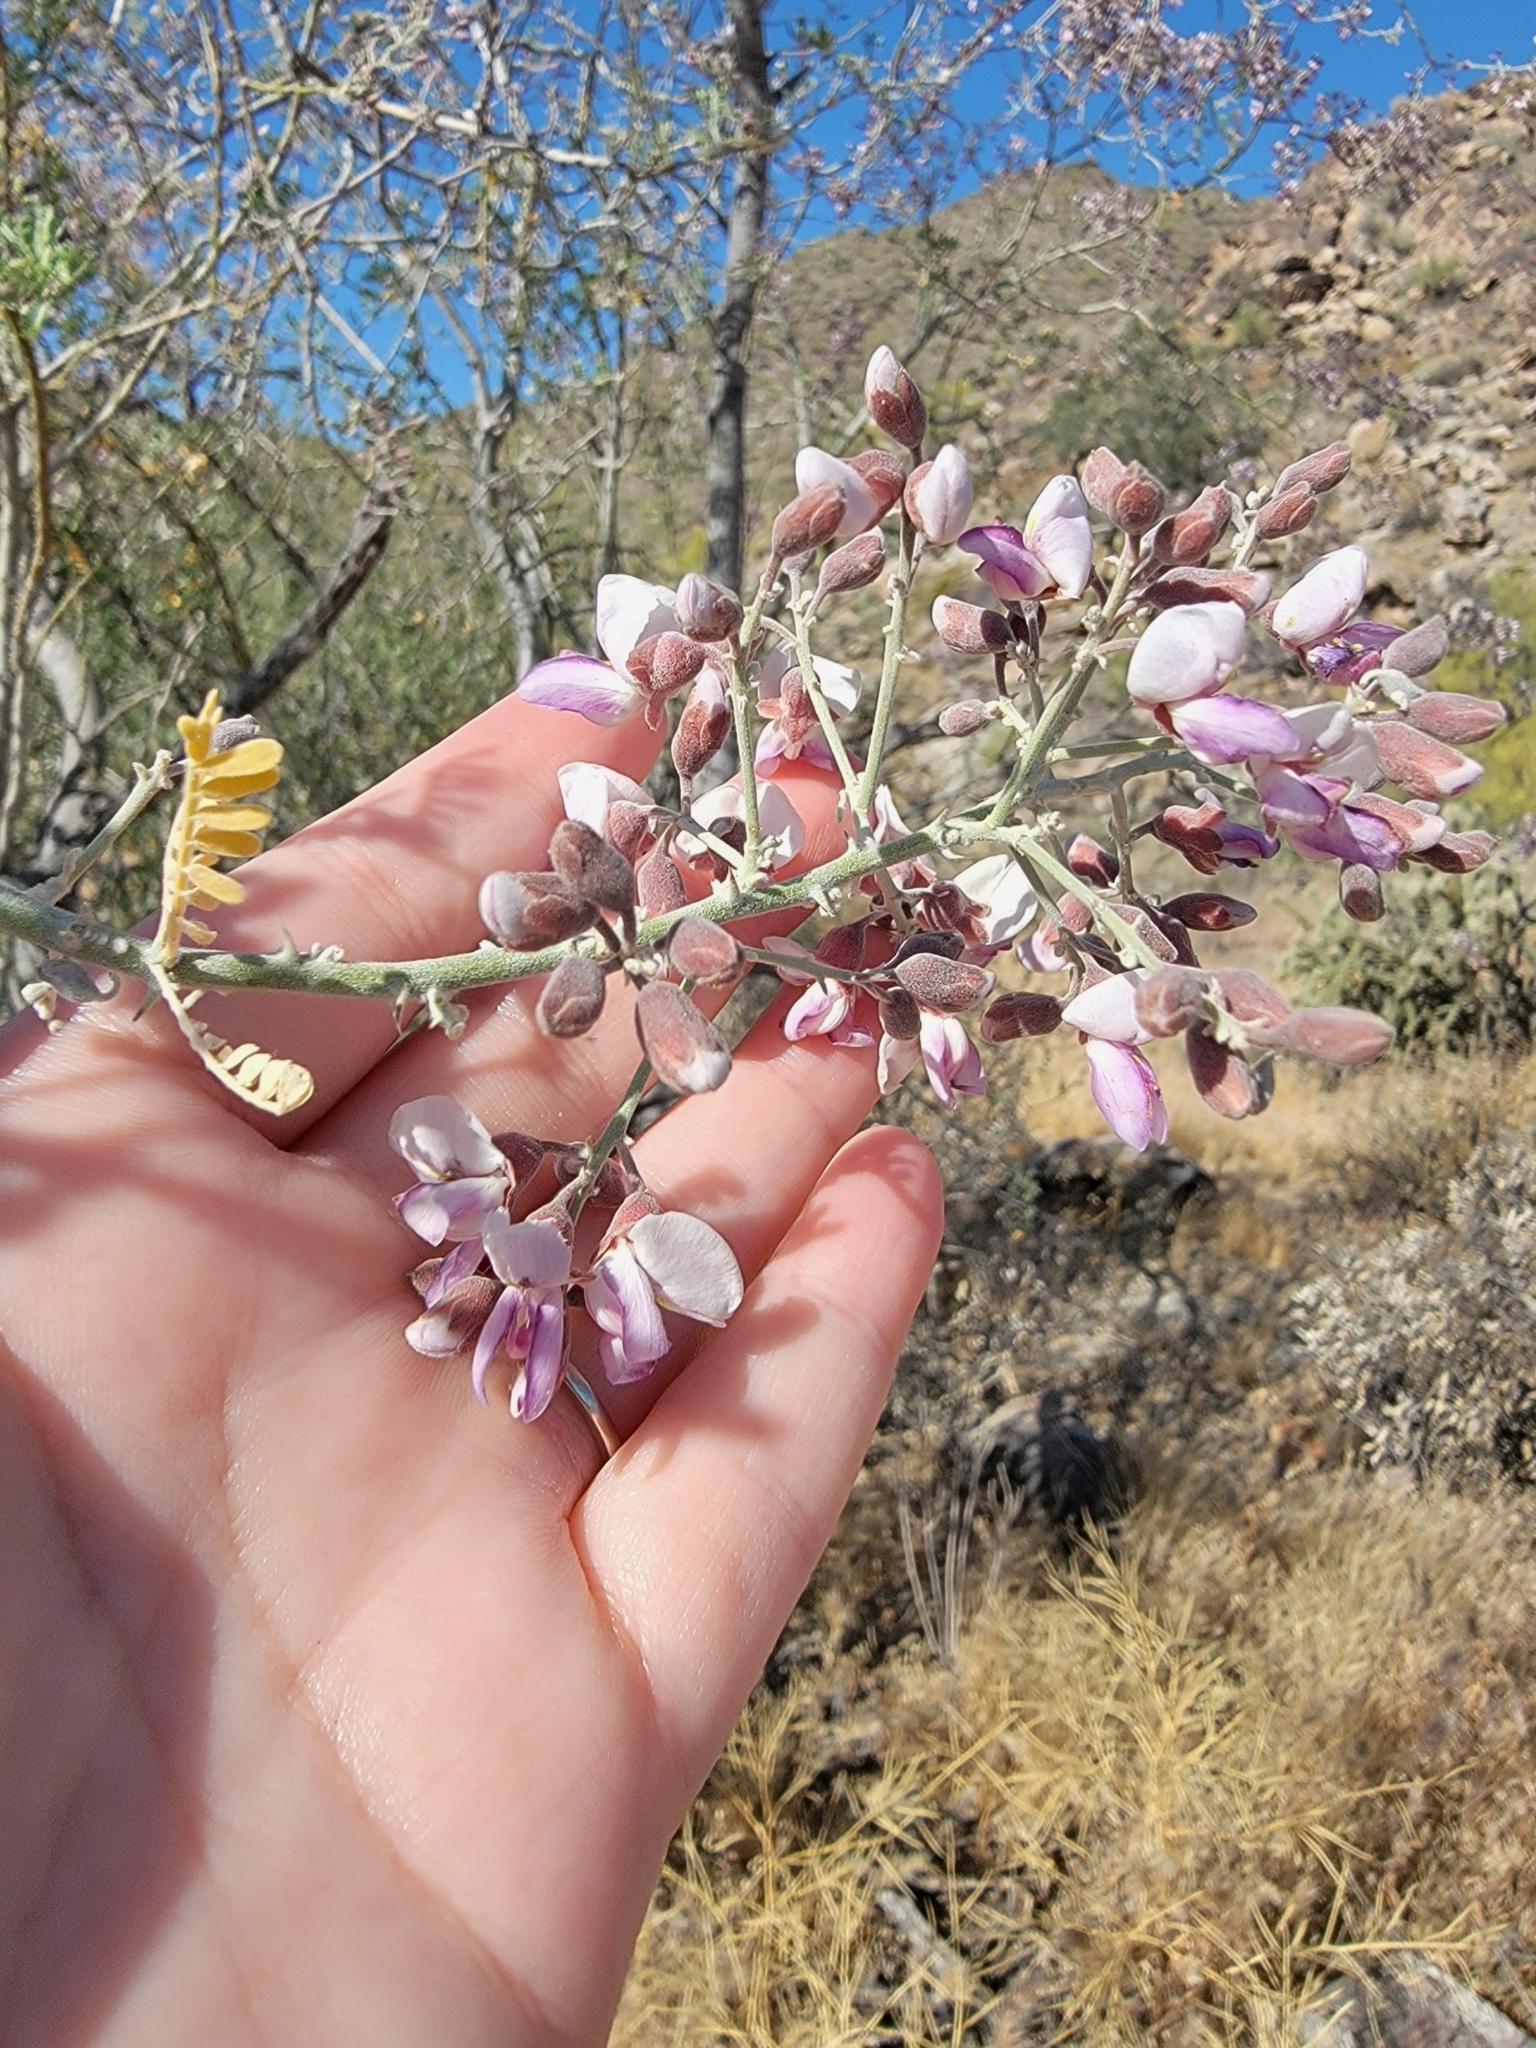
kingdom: Plantae
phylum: Tracheophyta
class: Magnoliopsida
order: Fabales
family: Fabaceae
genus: Olneya
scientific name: Olneya tesota
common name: Desert ironwood
